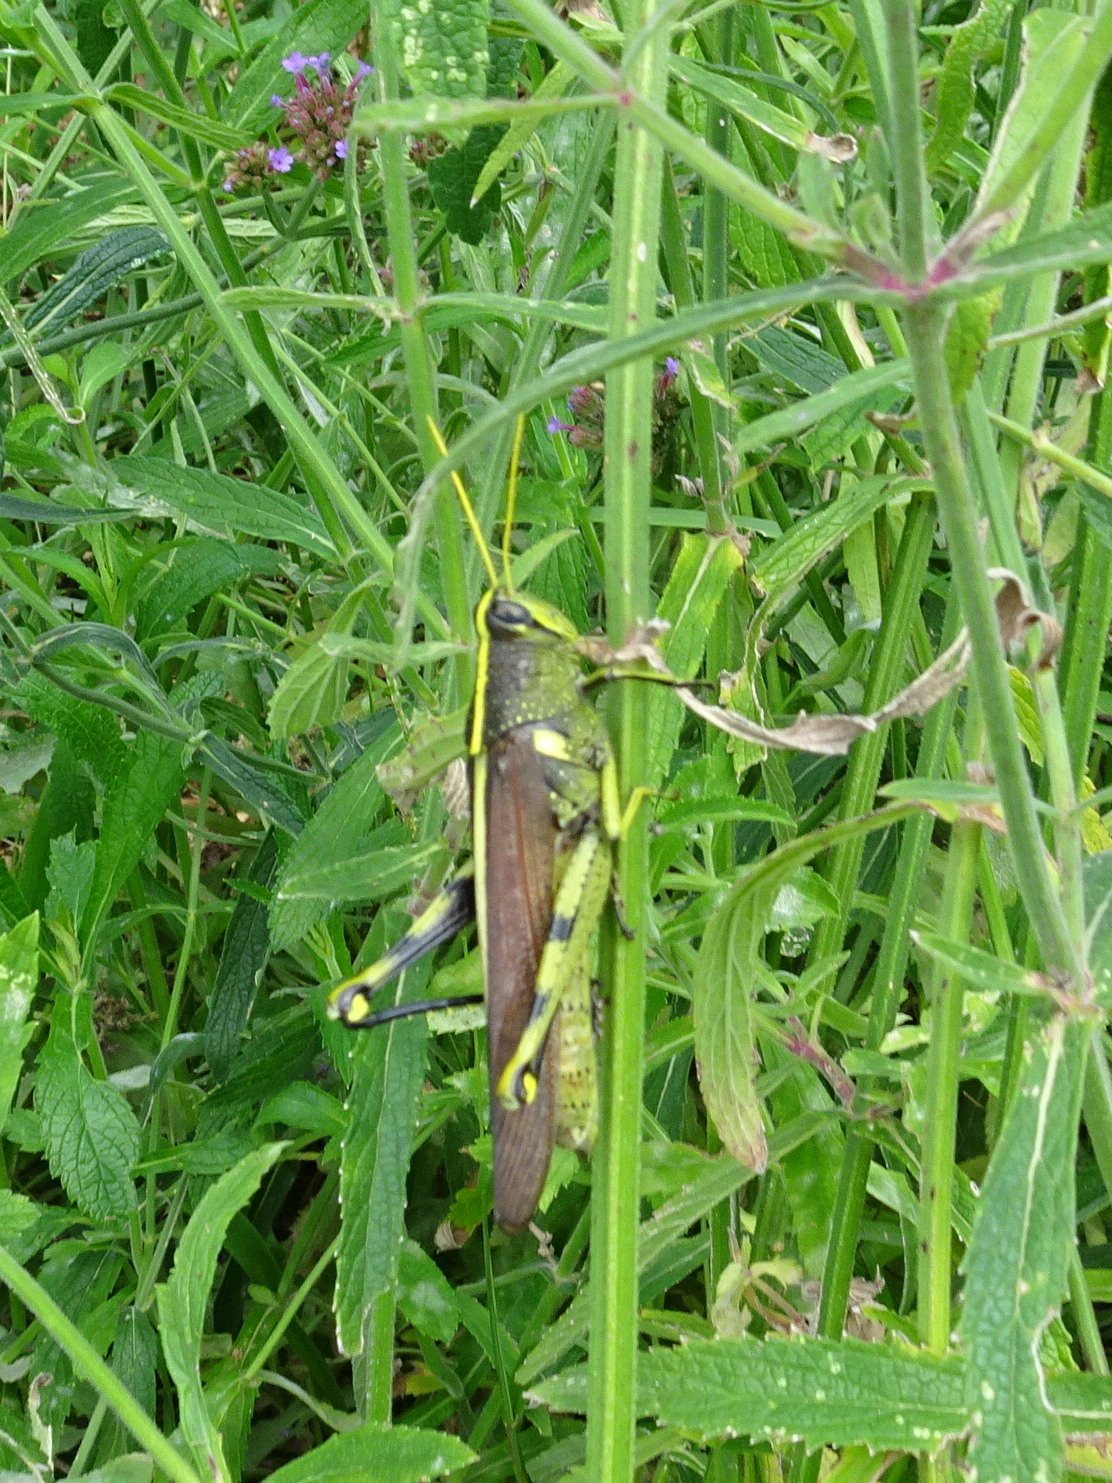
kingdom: Animalia
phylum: Arthropoda
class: Insecta
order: Orthoptera
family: Acrididae
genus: Schistocerca
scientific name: Schistocerca obscura
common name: Obscure bird grasshopper
